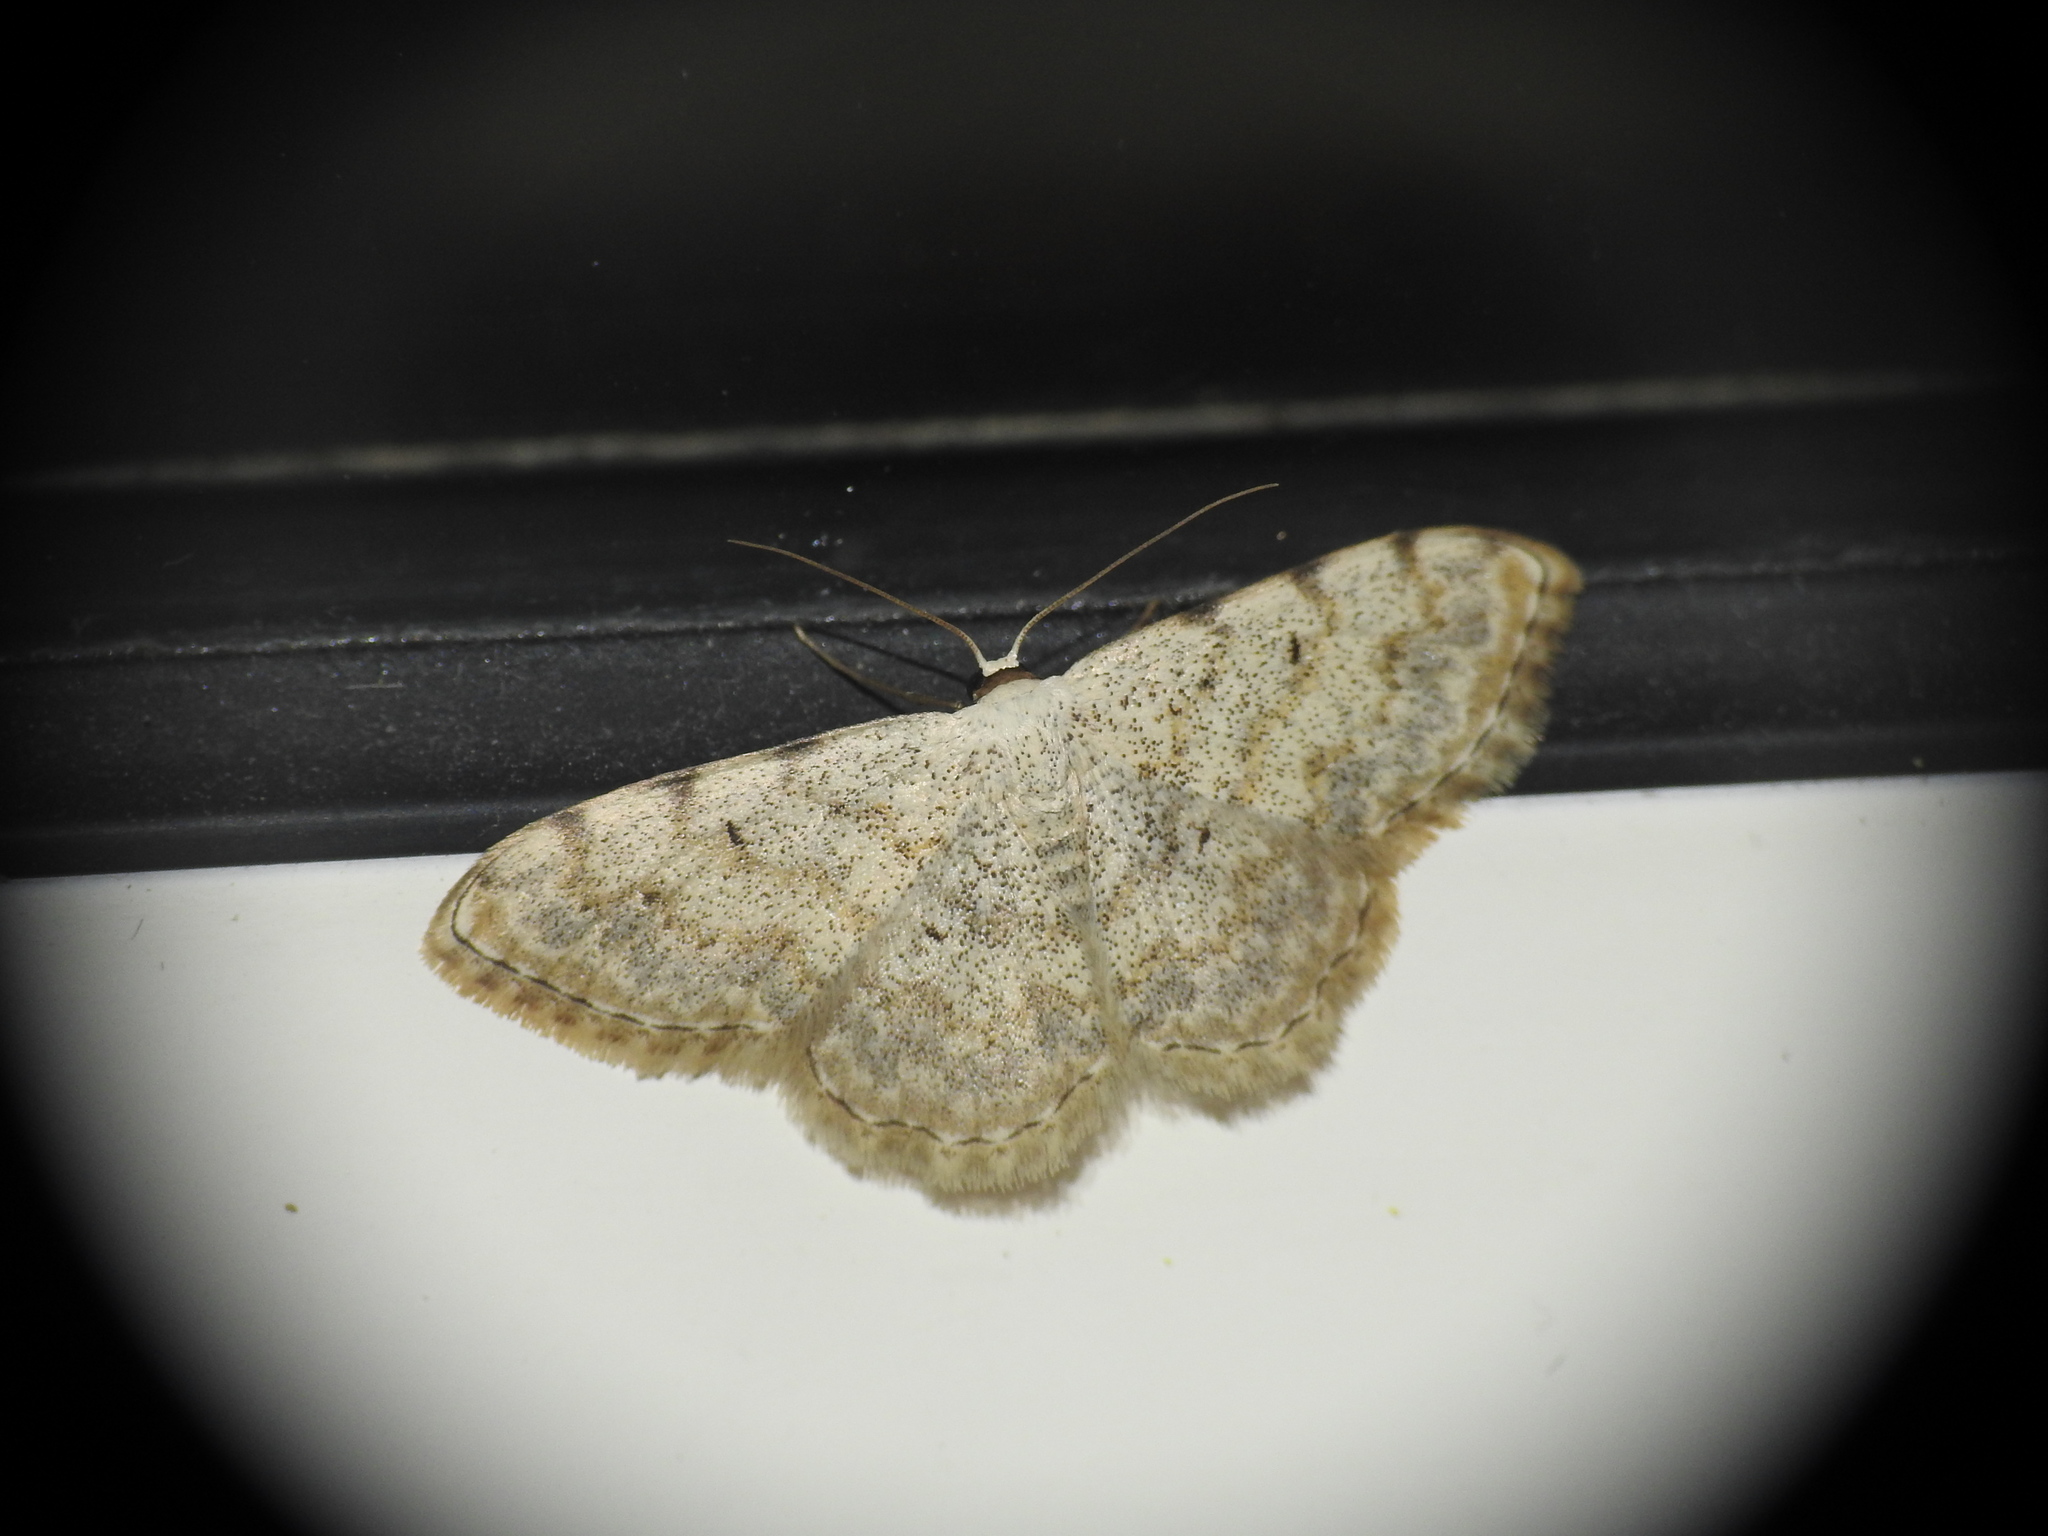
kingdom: Animalia
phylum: Arthropoda
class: Insecta
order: Lepidoptera
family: Geometridae
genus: Scopula
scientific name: Scopula submutata
